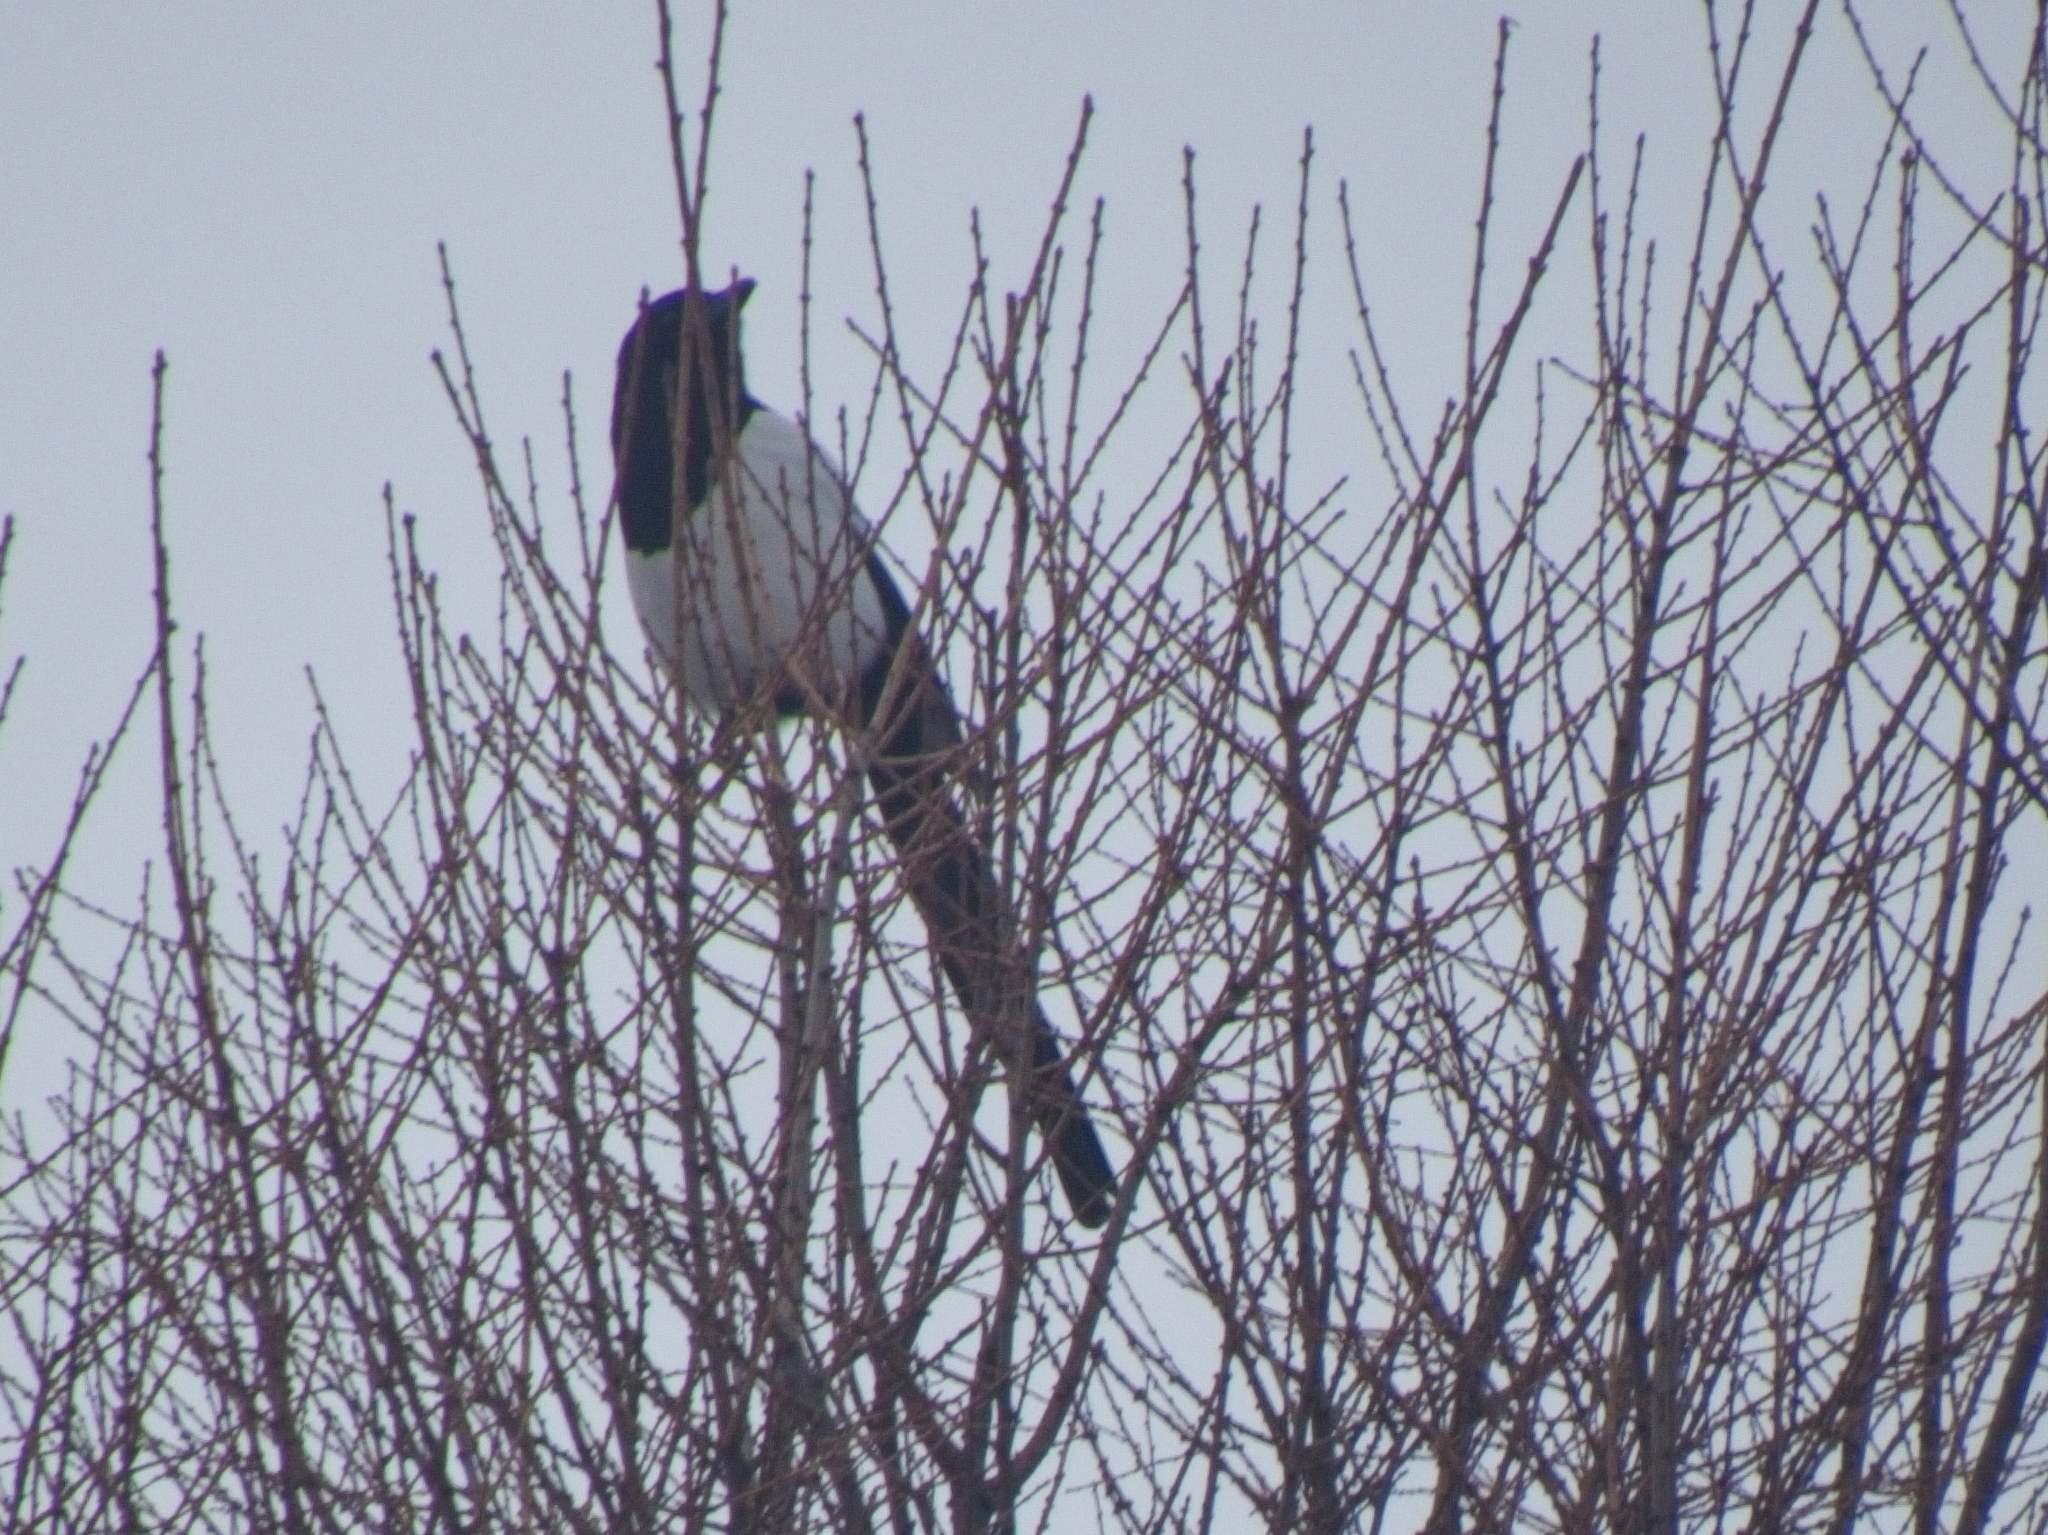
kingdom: Animalia
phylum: Chordata
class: Aves
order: Passeriformes
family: Corvidae
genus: Pica
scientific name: Pica pica
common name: Eurasian magpie
